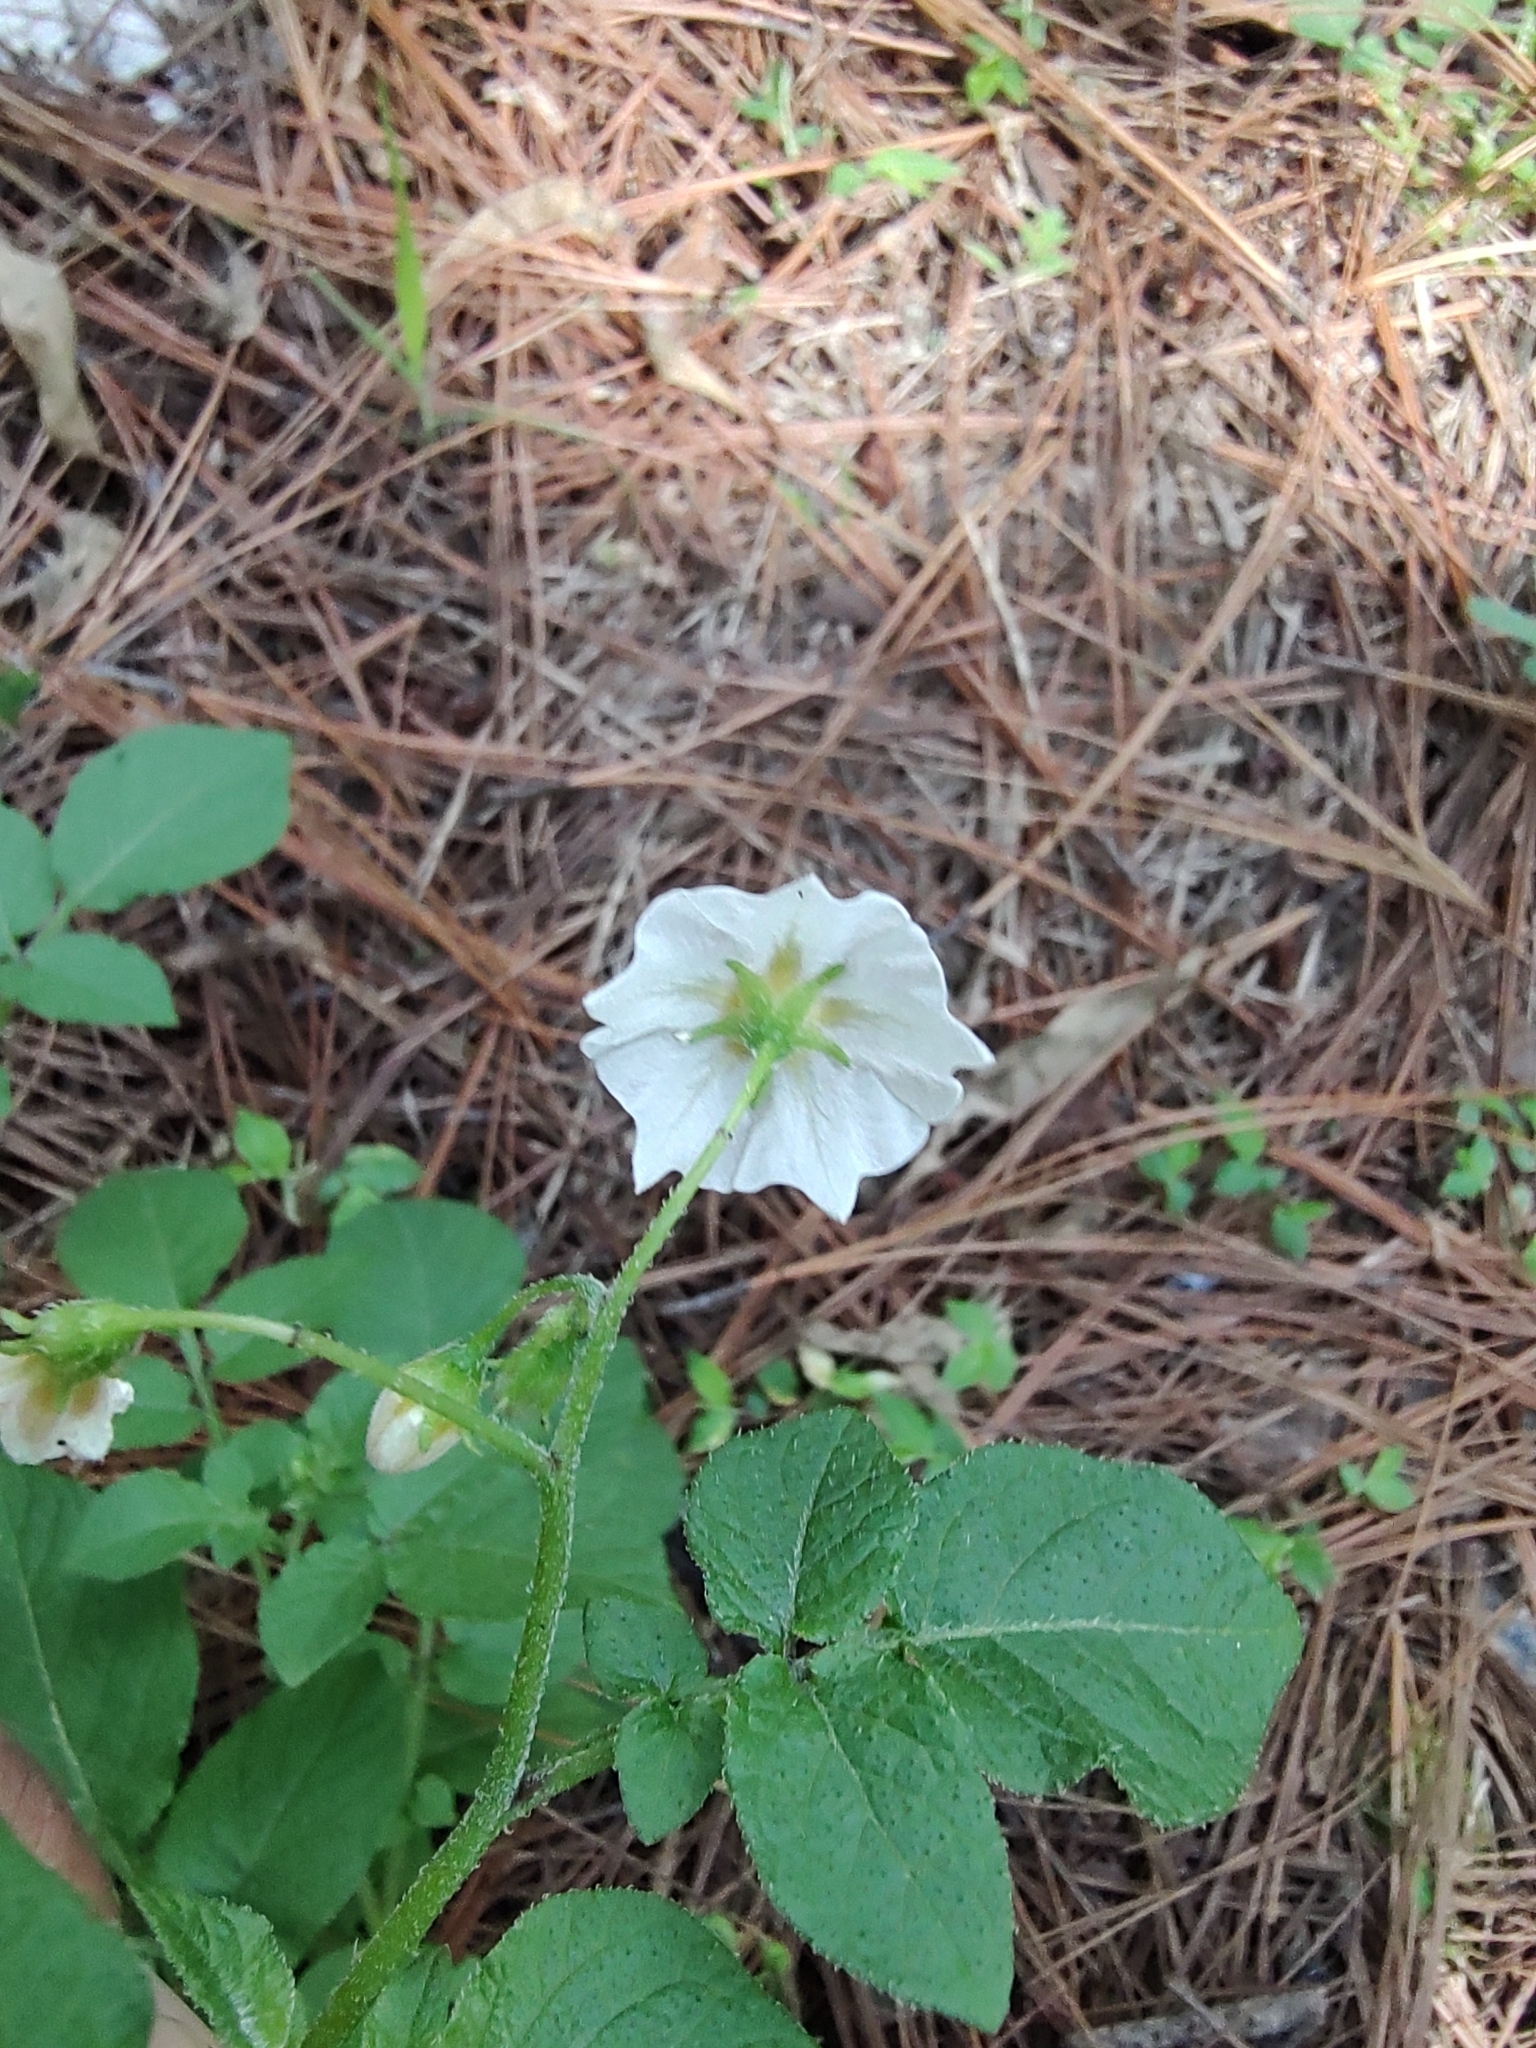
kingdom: Plantae
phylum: Tracheophyta
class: Magnoliopsida
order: Solanales
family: Solanaceae
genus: Solanum
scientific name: Solanum stoloniferum
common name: Fendler's nighshade
